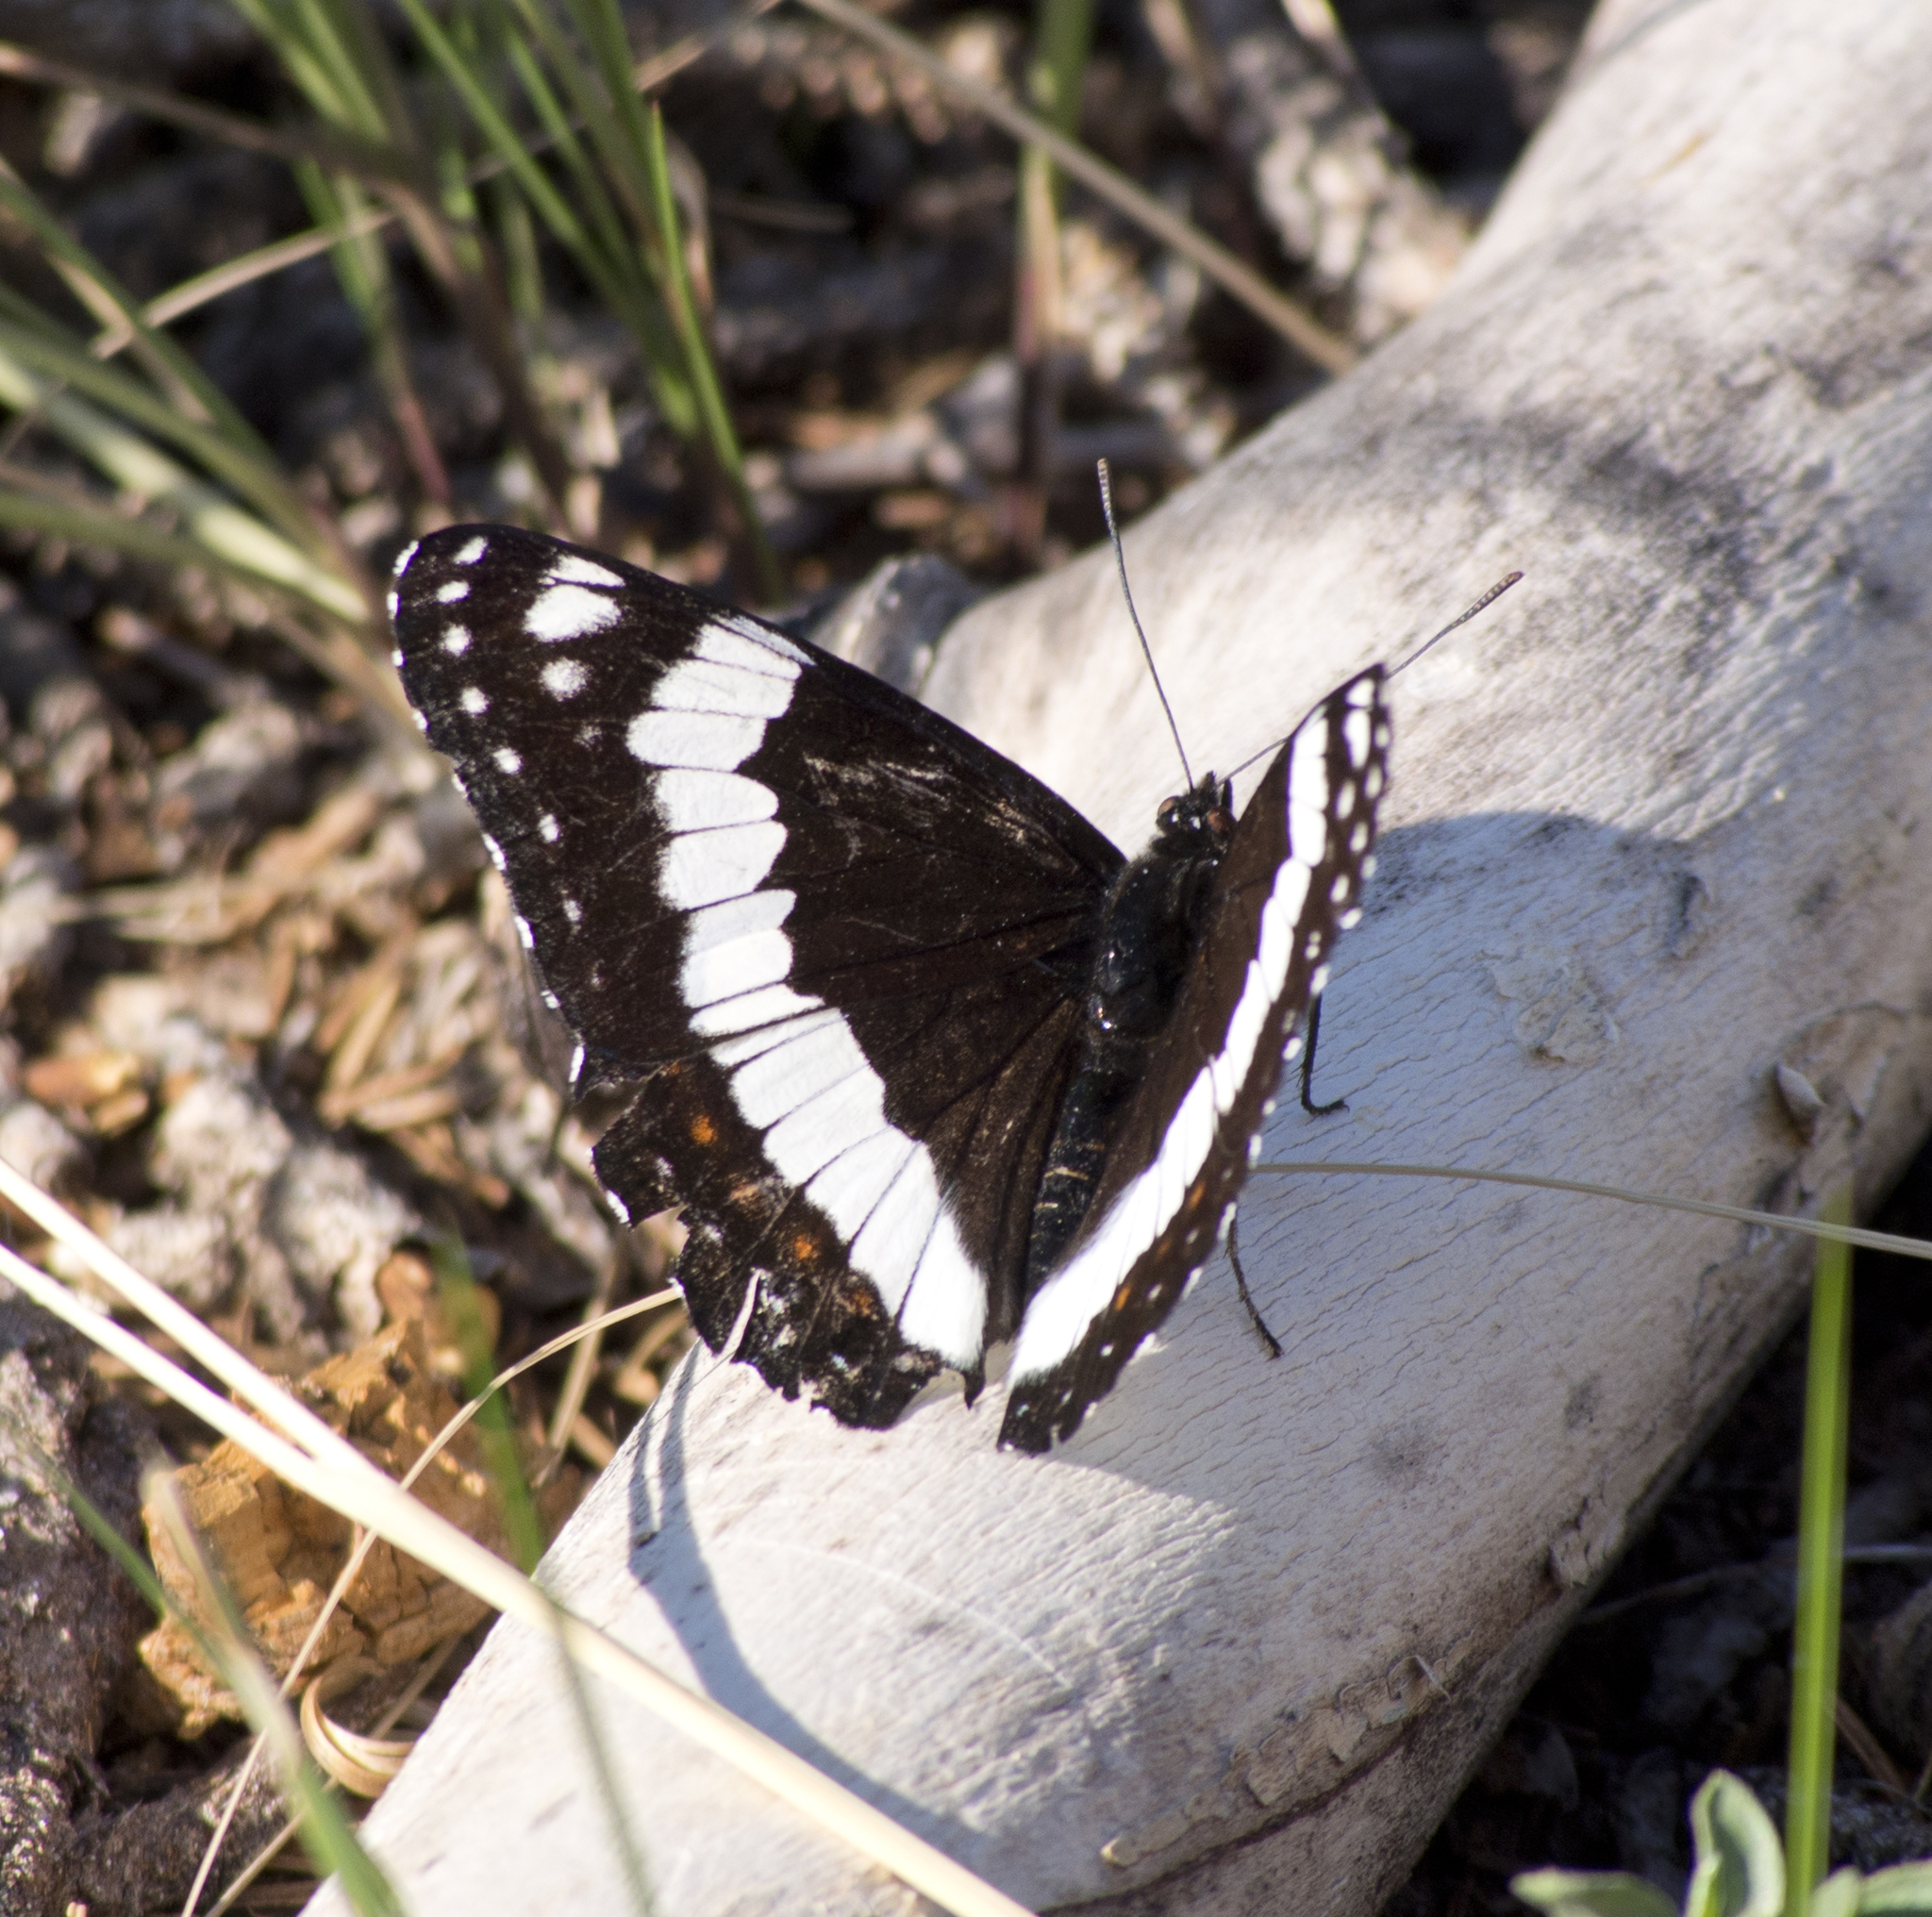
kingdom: Animalia
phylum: Arthropoda
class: Insecta
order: Lepidoptera
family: Nymphalidae
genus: Limenitis
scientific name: Limenitis weidemeyerii
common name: Weidemeyer's admiral
